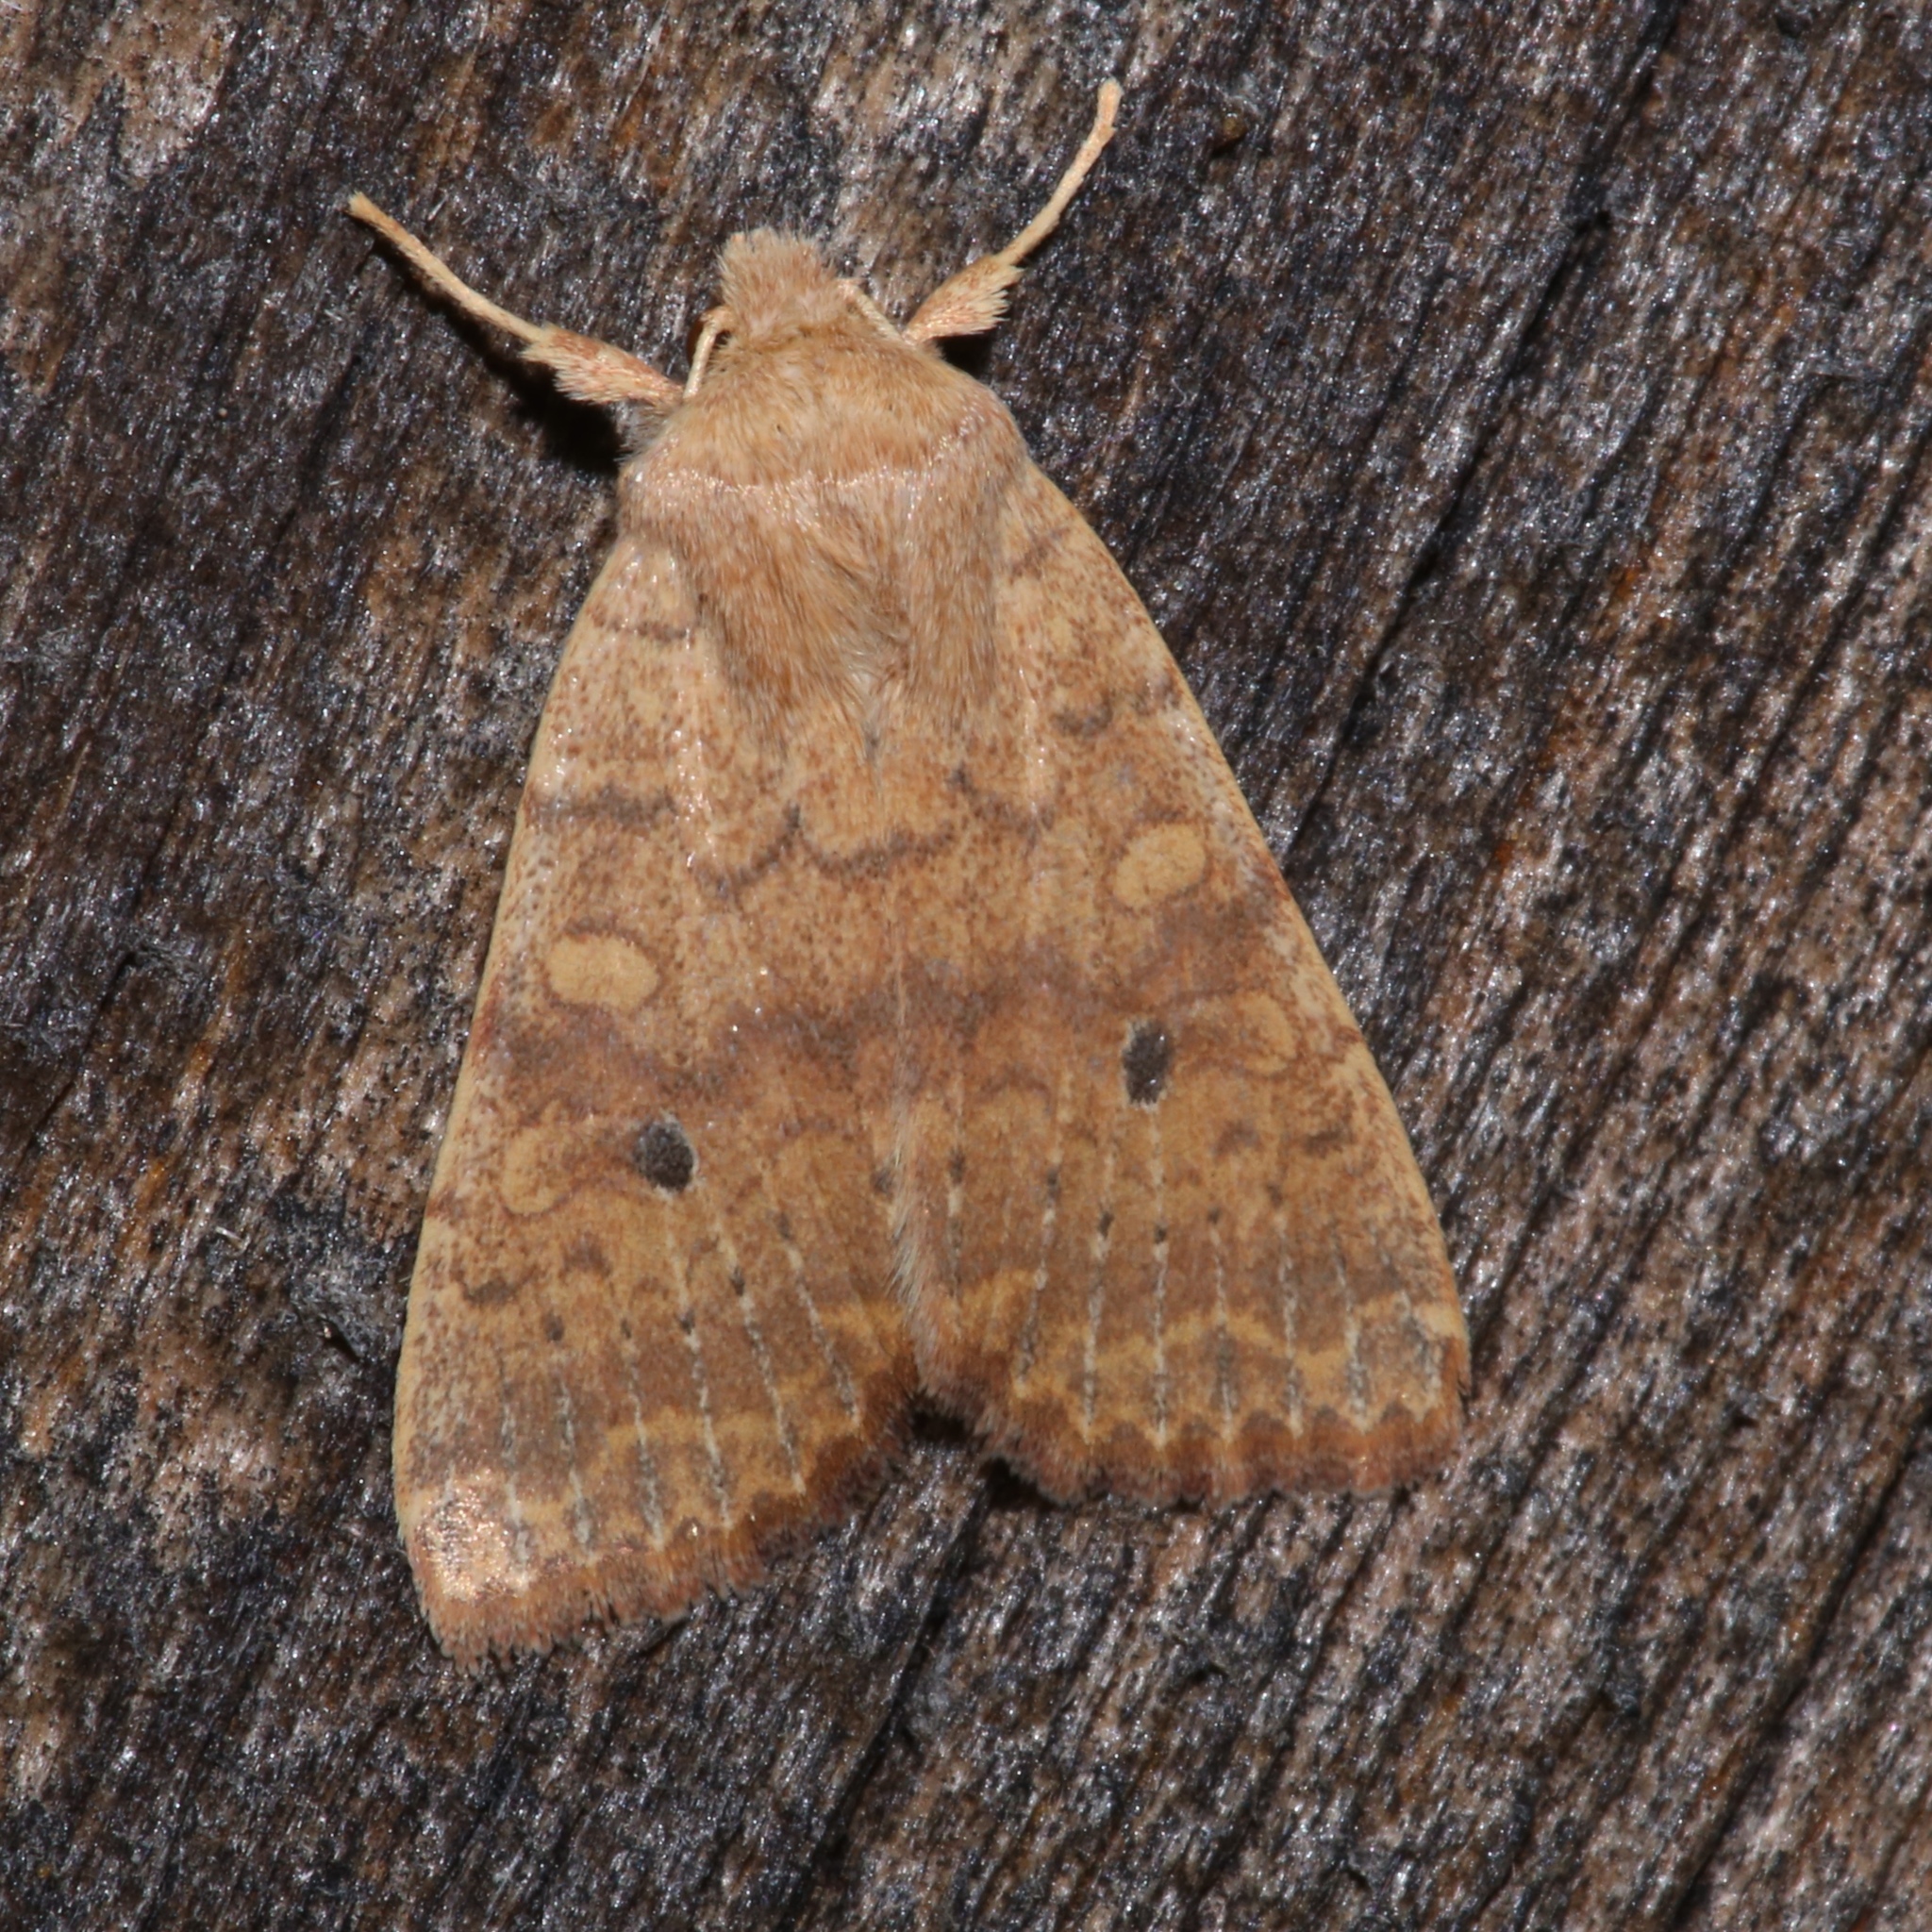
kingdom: Animalia
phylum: Arthropoda
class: Insecta
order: Lepidoptera
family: Noctuidae
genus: Agrochola
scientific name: Agrochola bicolorago
